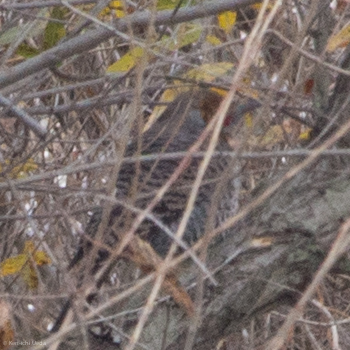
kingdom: Animalia
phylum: Chordata
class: Aves
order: Piciformes
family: Picidae
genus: Colaptes
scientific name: Colaptes auratus
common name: Northern flicker
